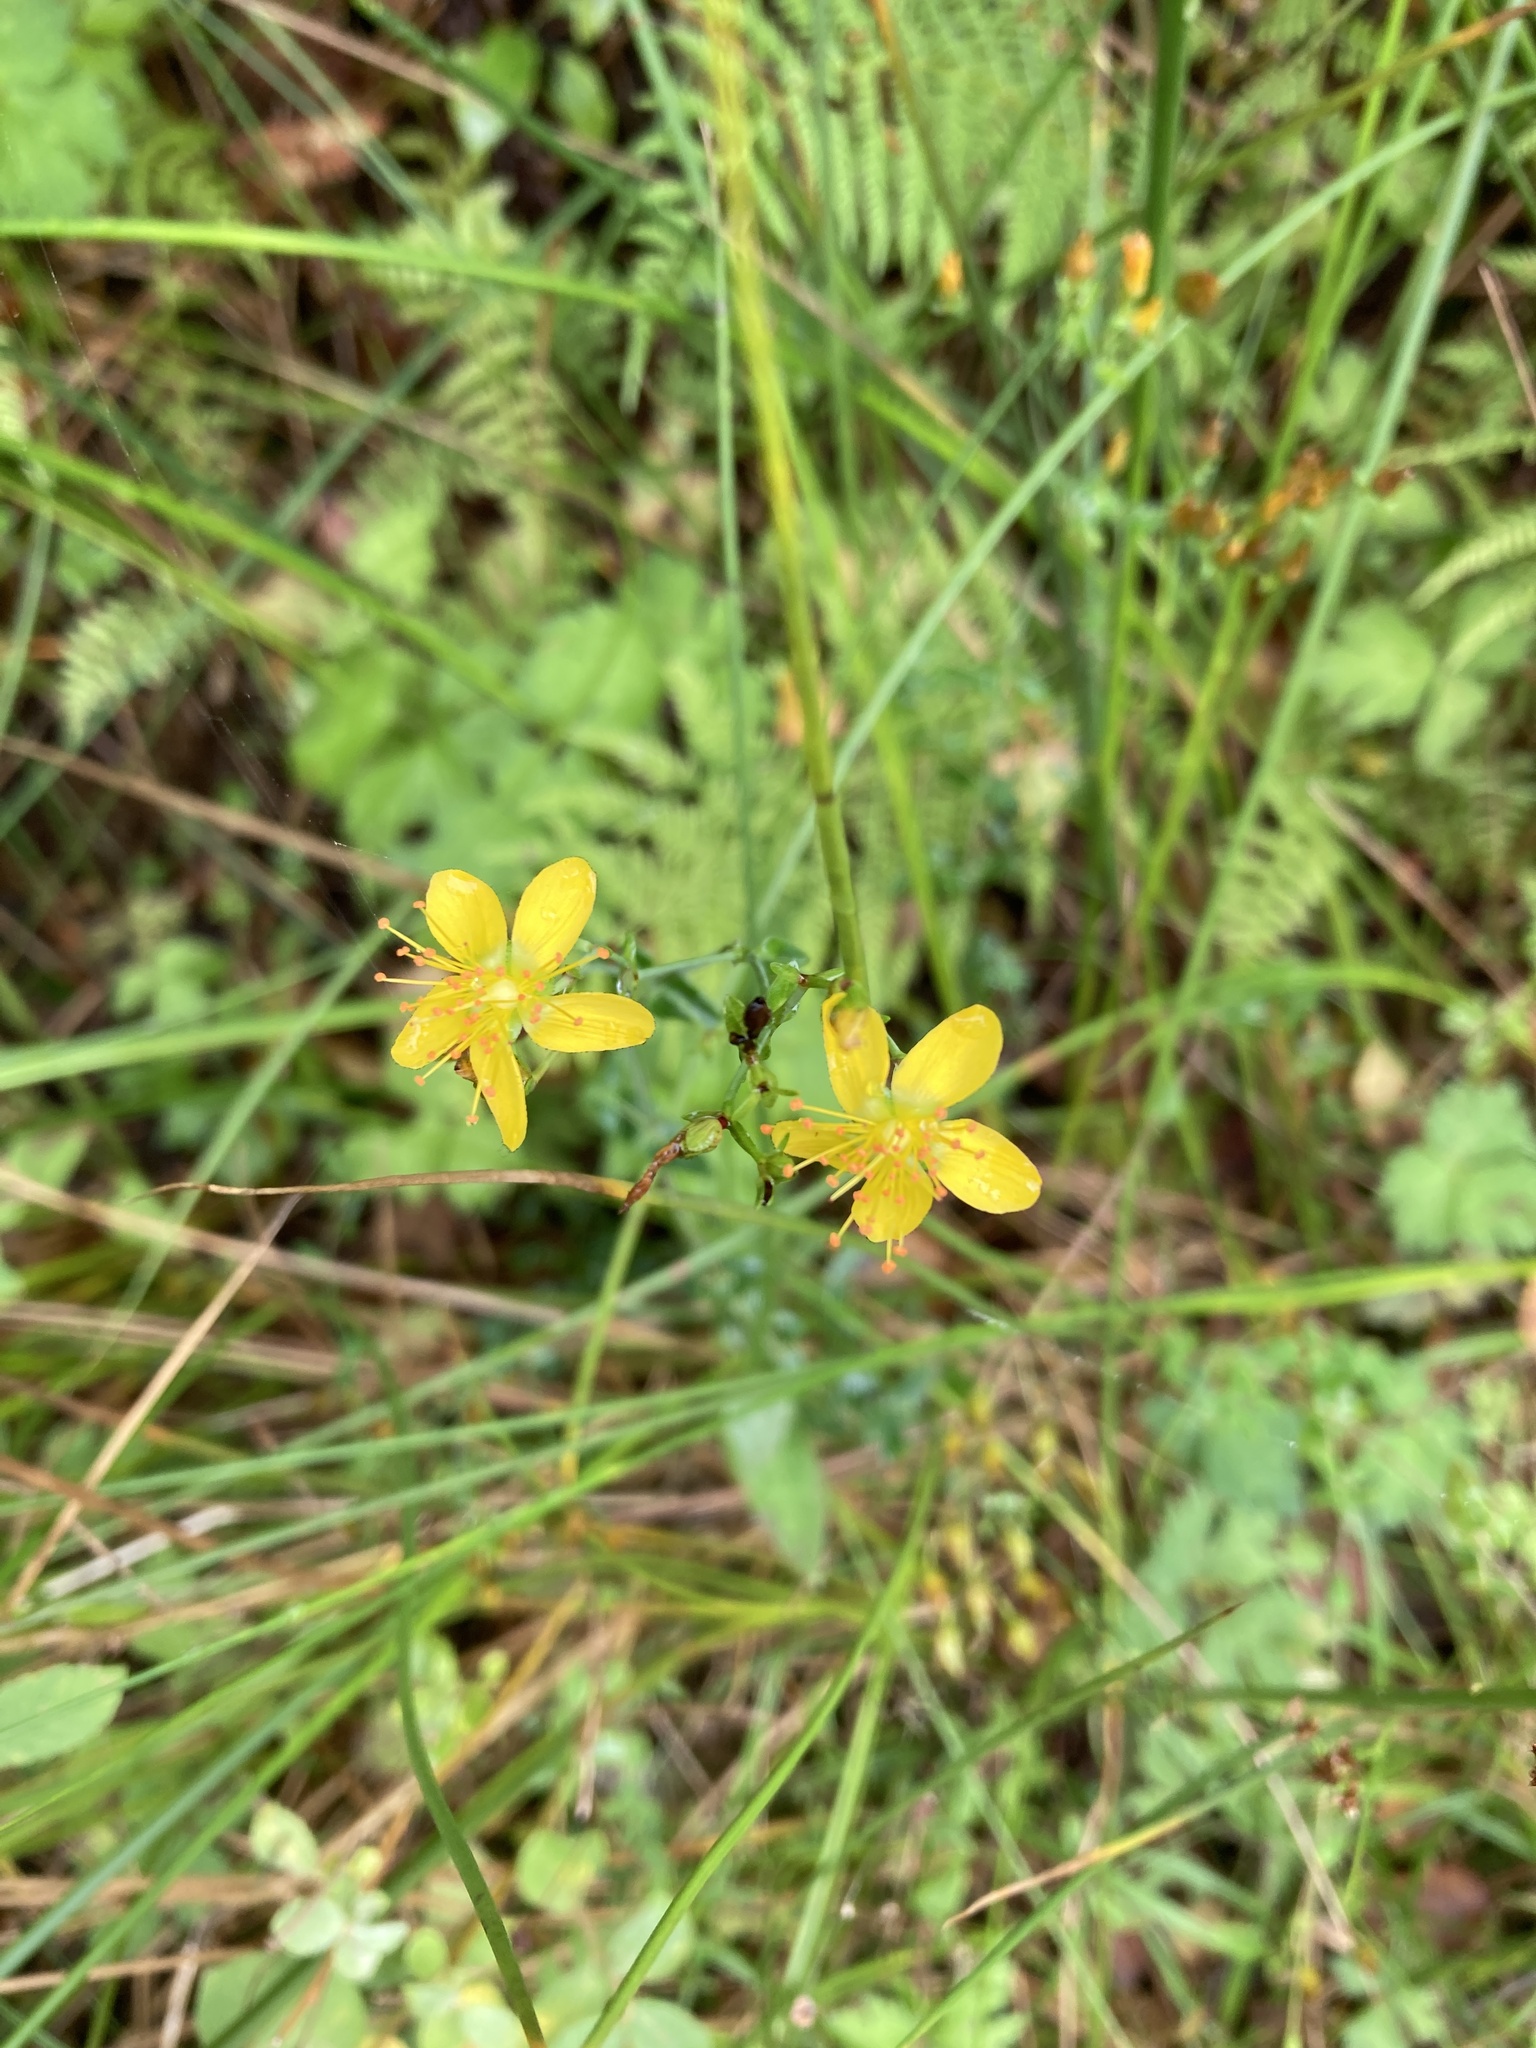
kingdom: Plantae
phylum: Tracheophyta
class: Magnoliopsida
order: Malpighiales
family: Hypericaceae
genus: Hypericum
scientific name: Hypericum pulchrum
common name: Slender st. john's-wort
